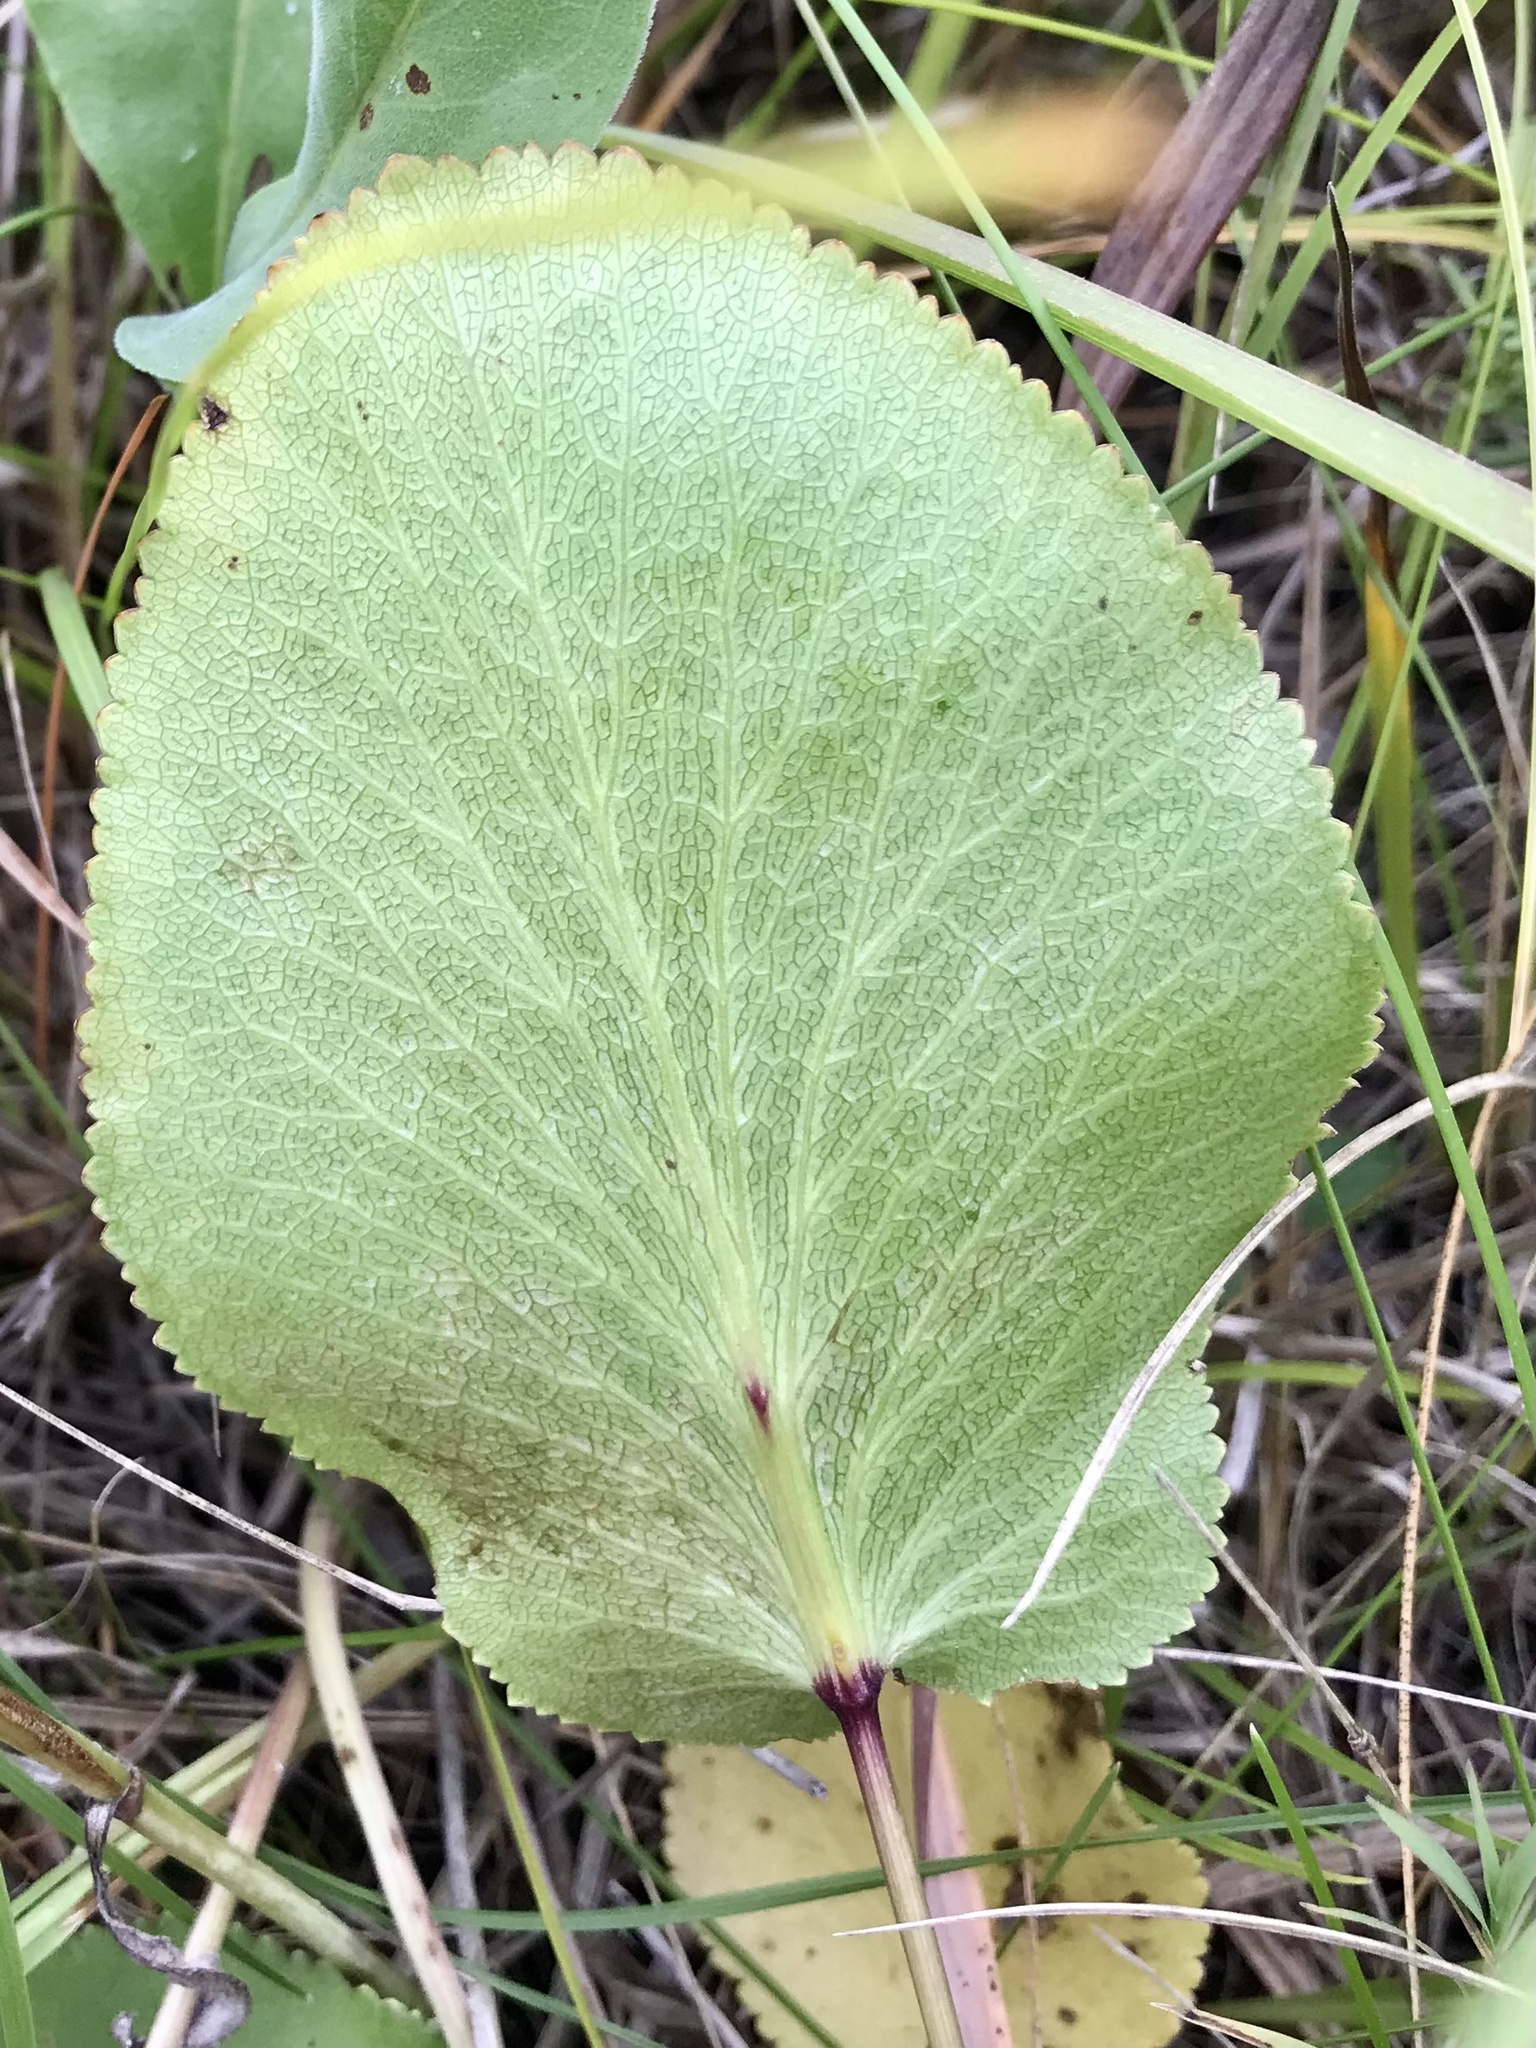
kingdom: Plantae
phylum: Tracheophyta
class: Magnoliopsida
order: Apiales
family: Apiaceae
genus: Zizia
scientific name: Zizia aptera
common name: Heart-leaved alexanders
